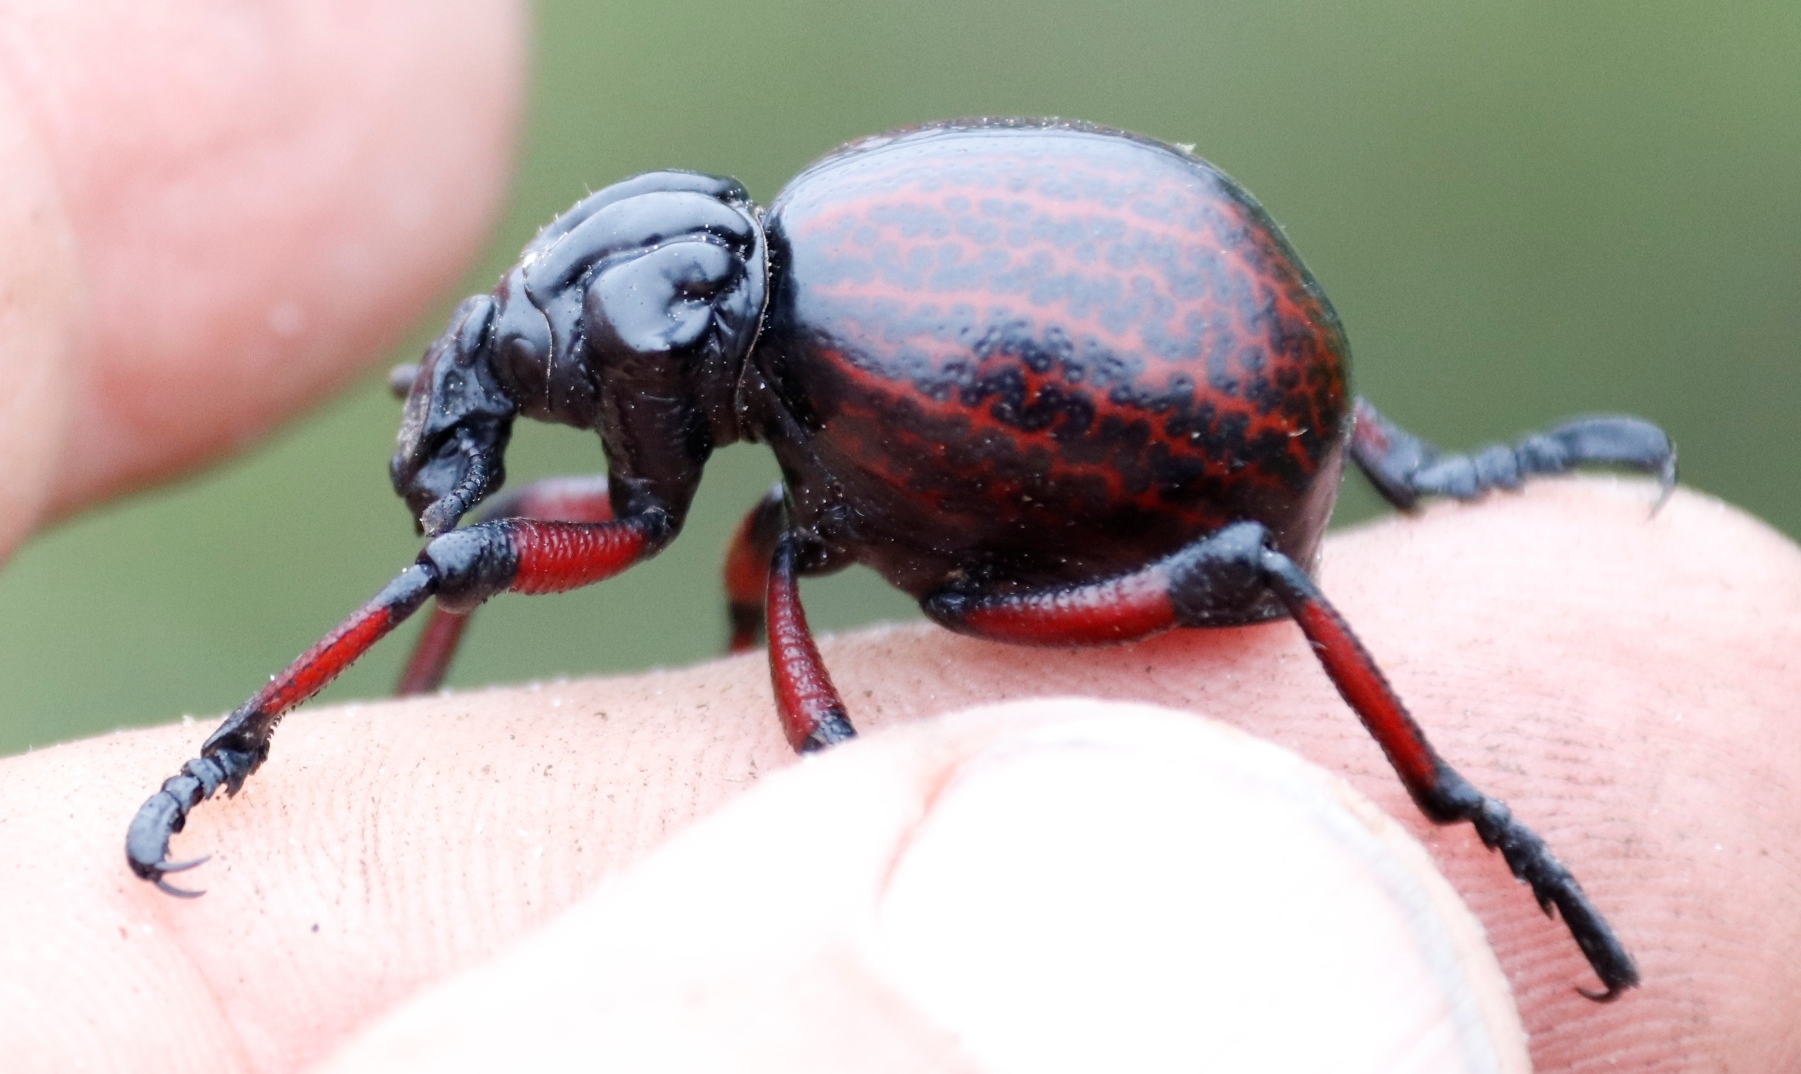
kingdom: Animalia
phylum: Arthropoda
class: Insecta
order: Coleoptera
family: Brachyceridae
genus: Brachycerus
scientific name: Brachycerus farctus
